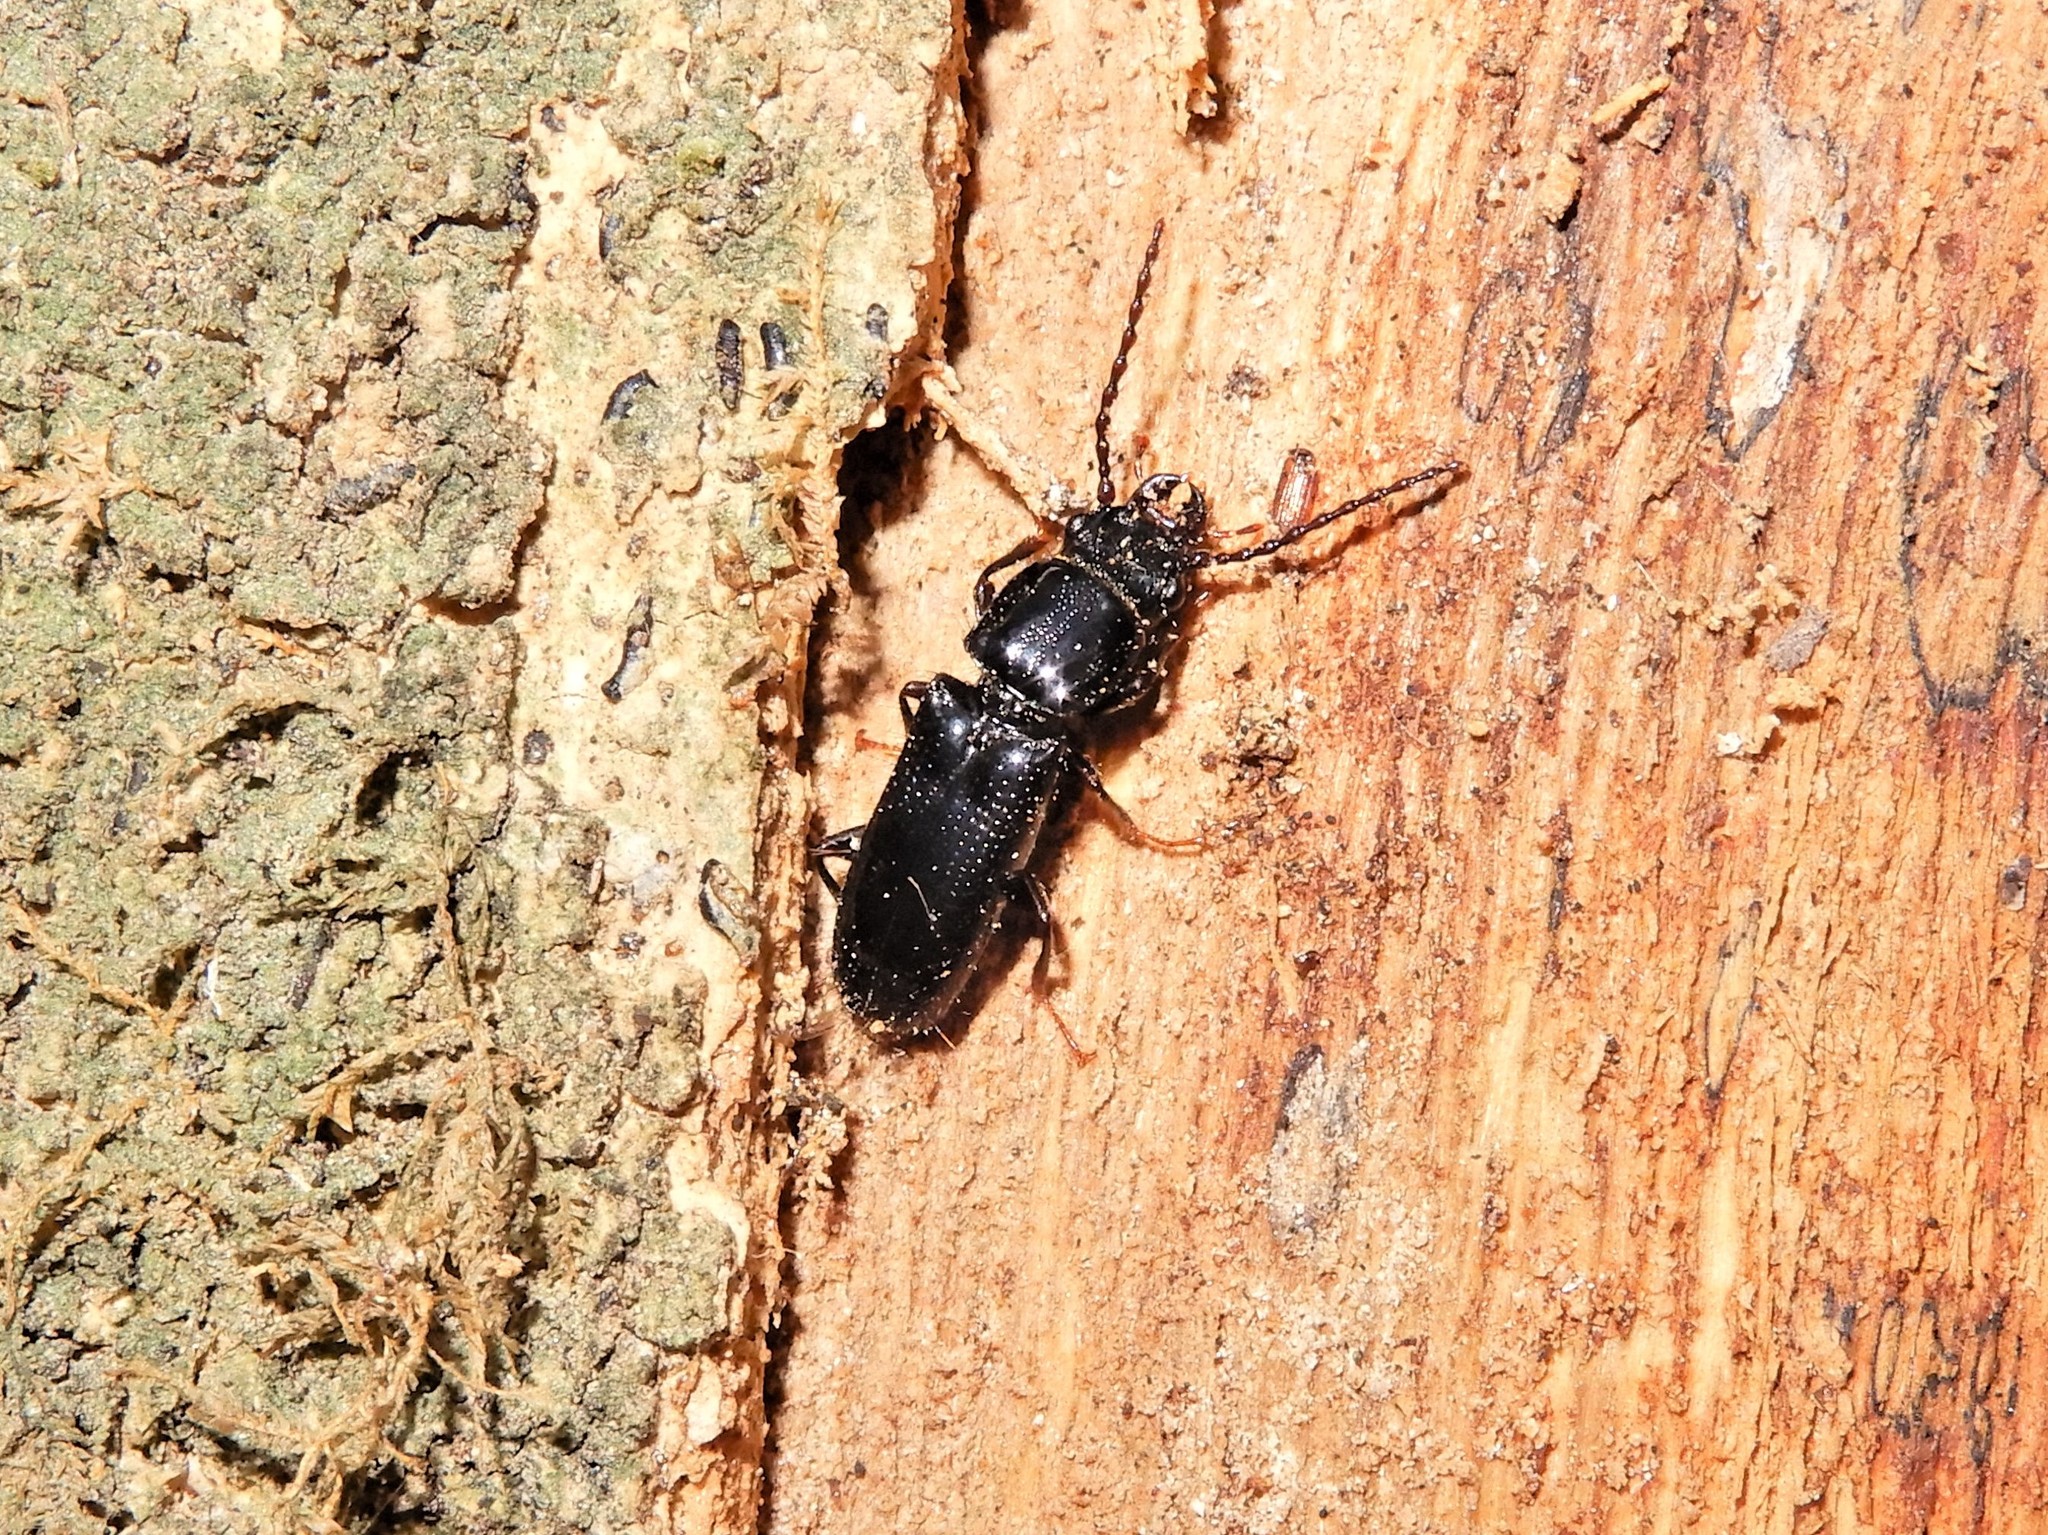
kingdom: Animalia
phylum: Arthropoda
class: Insecta
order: Coleoptera
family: Chaetosomatidae
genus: Chaetosoma
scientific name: Chaetosoma
